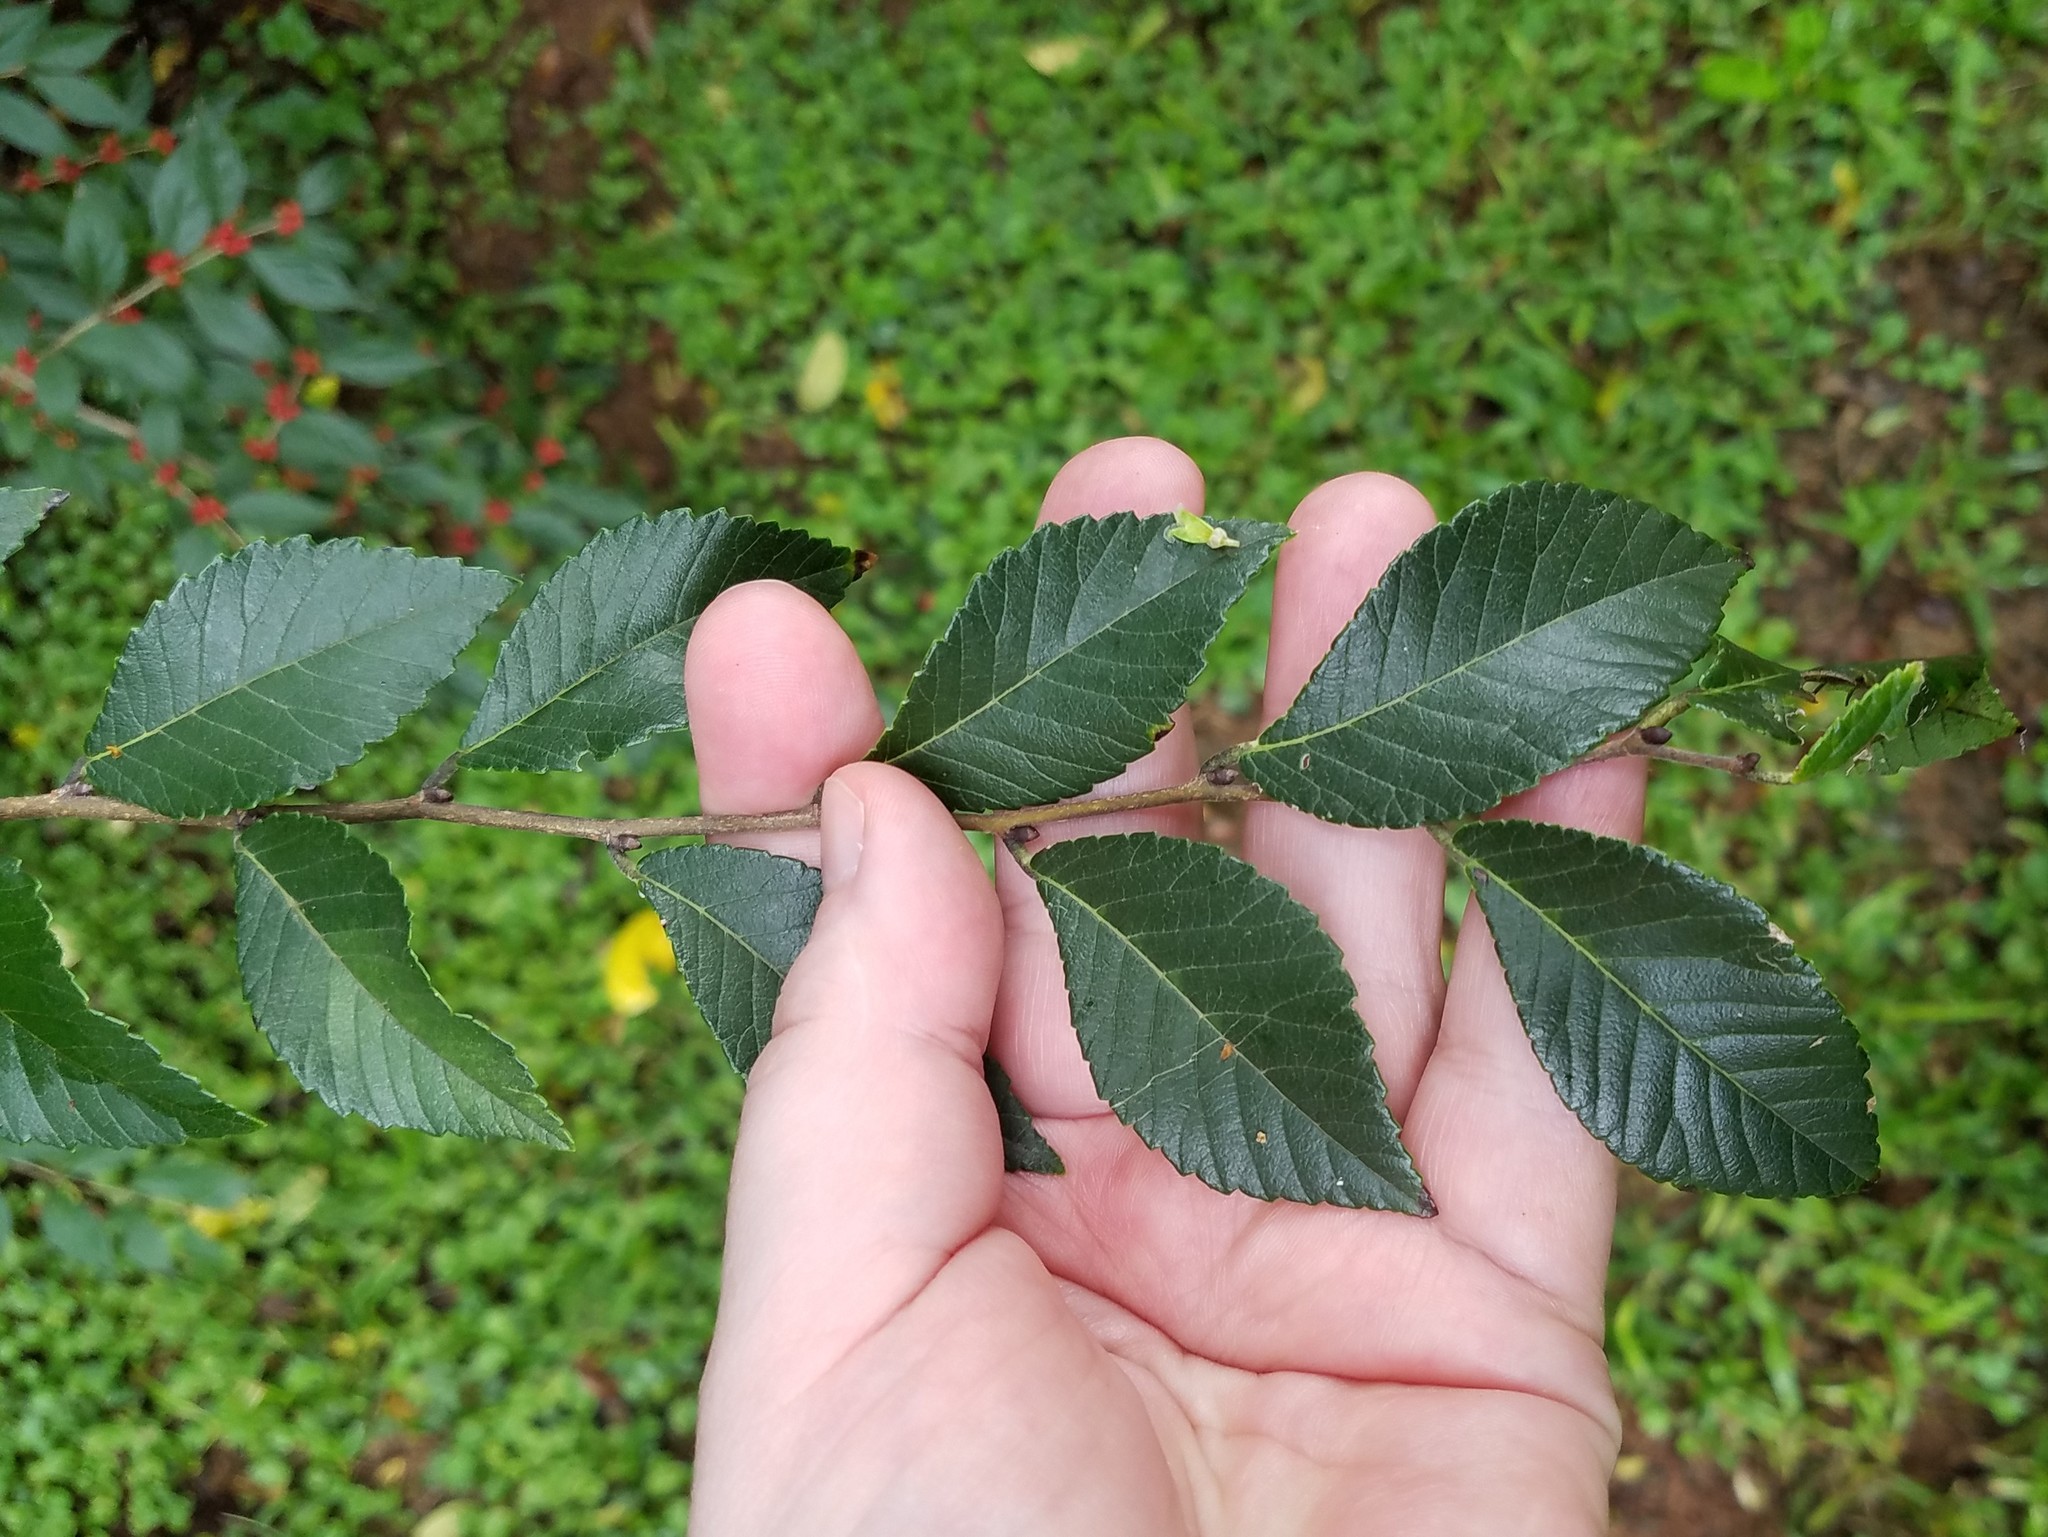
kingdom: Plantae
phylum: Tracheophyta
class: Magnoliopsida
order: Rosales
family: Ulmaceae
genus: Ulmus
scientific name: Ulmus parvifolia
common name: Chinese elm
